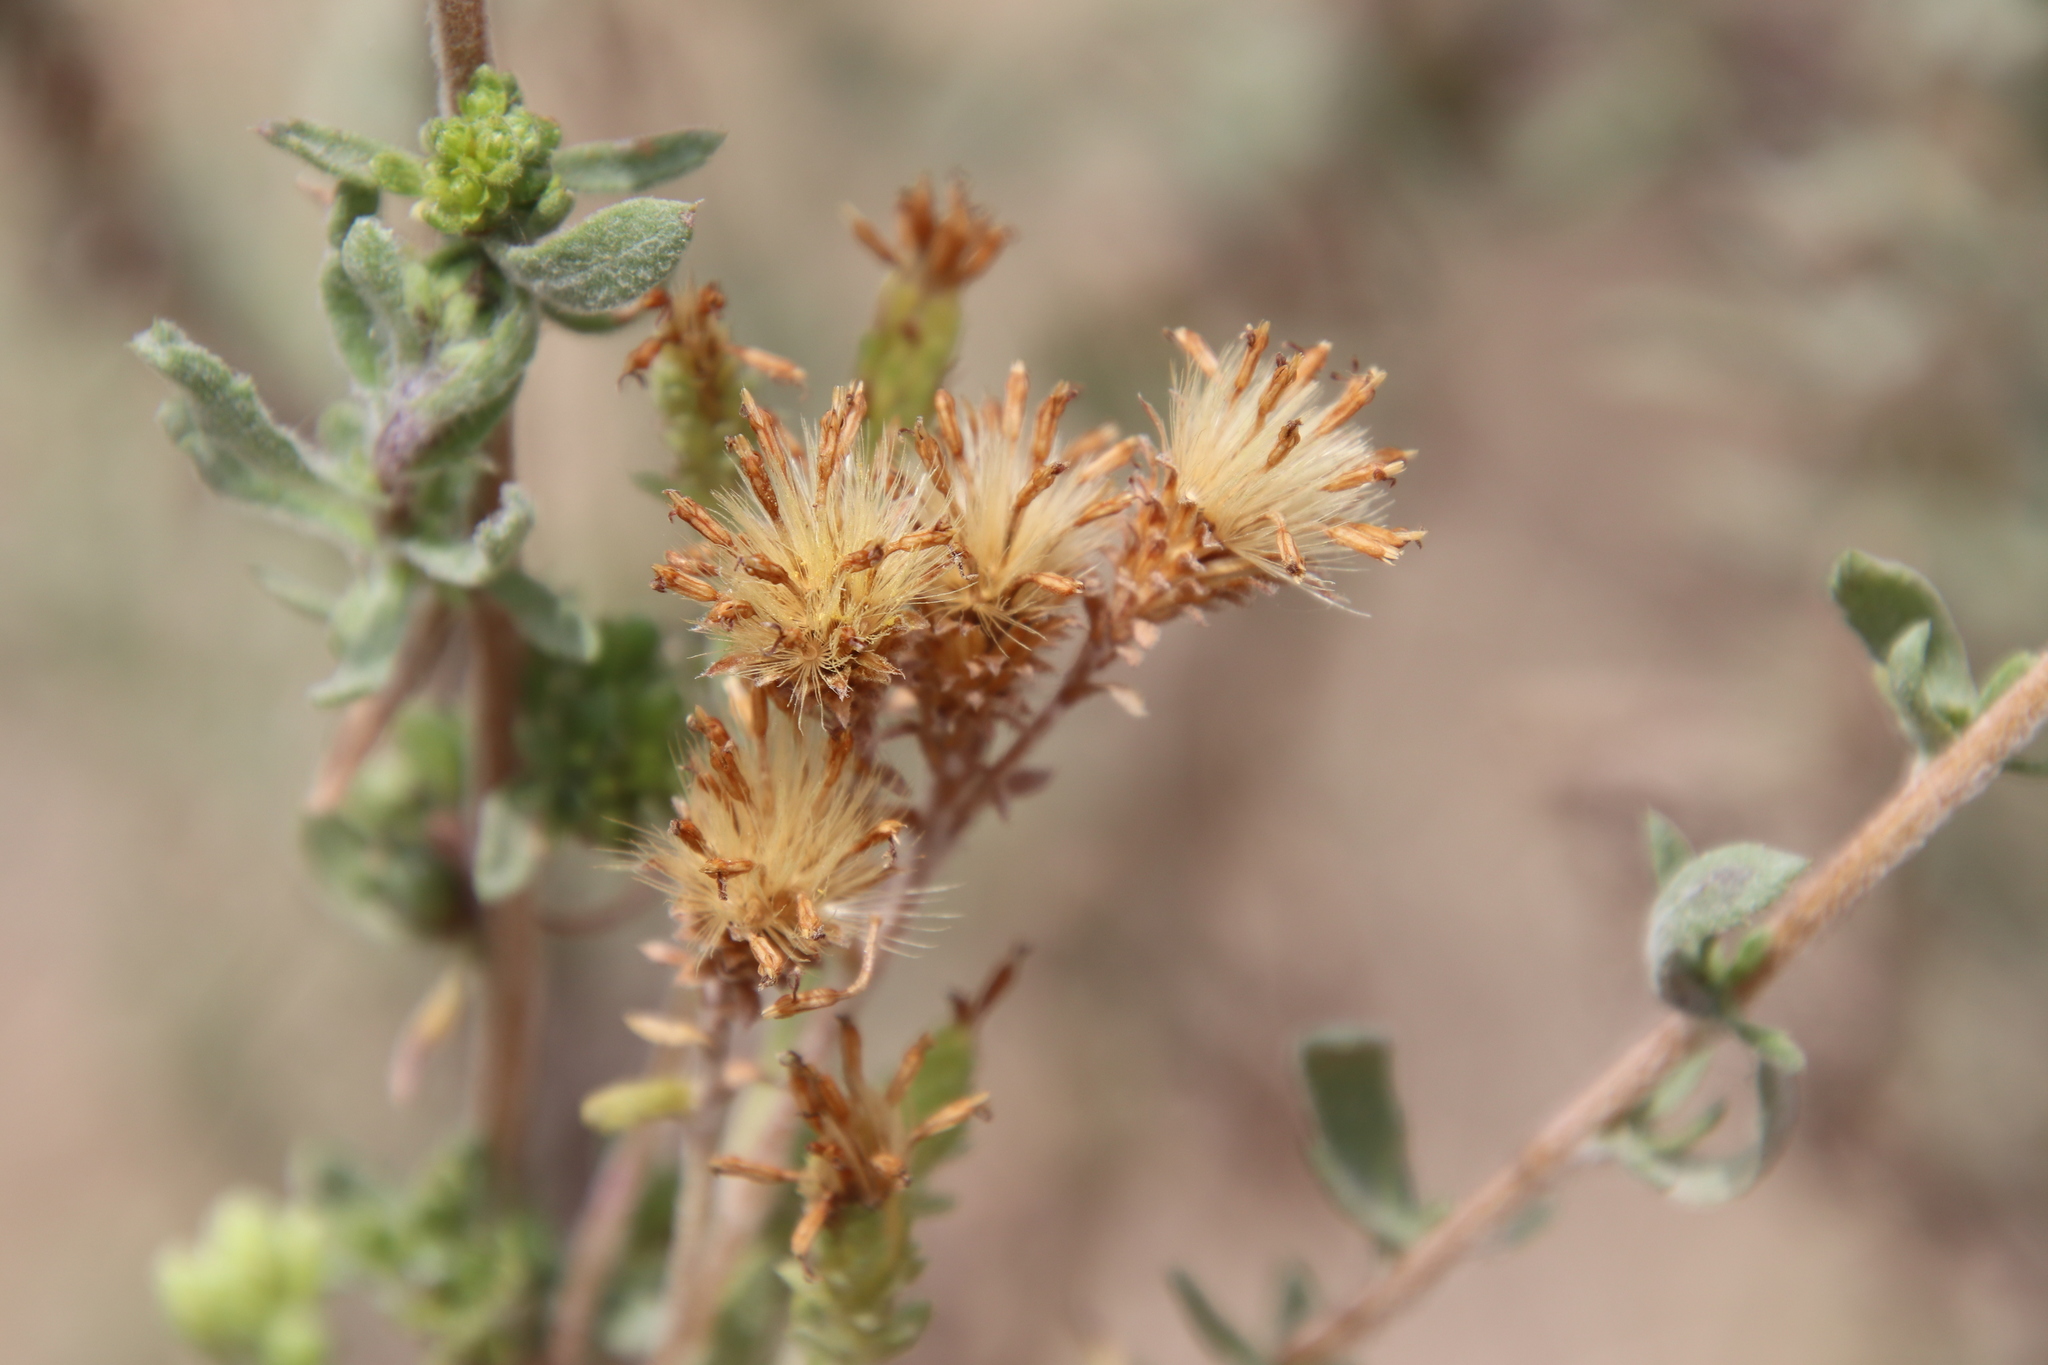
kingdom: Plantae
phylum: Tracheophyta
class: Magnoliopsida
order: Asterales
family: Asteraceae
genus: Isocoma
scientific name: Isocoma menziesii
